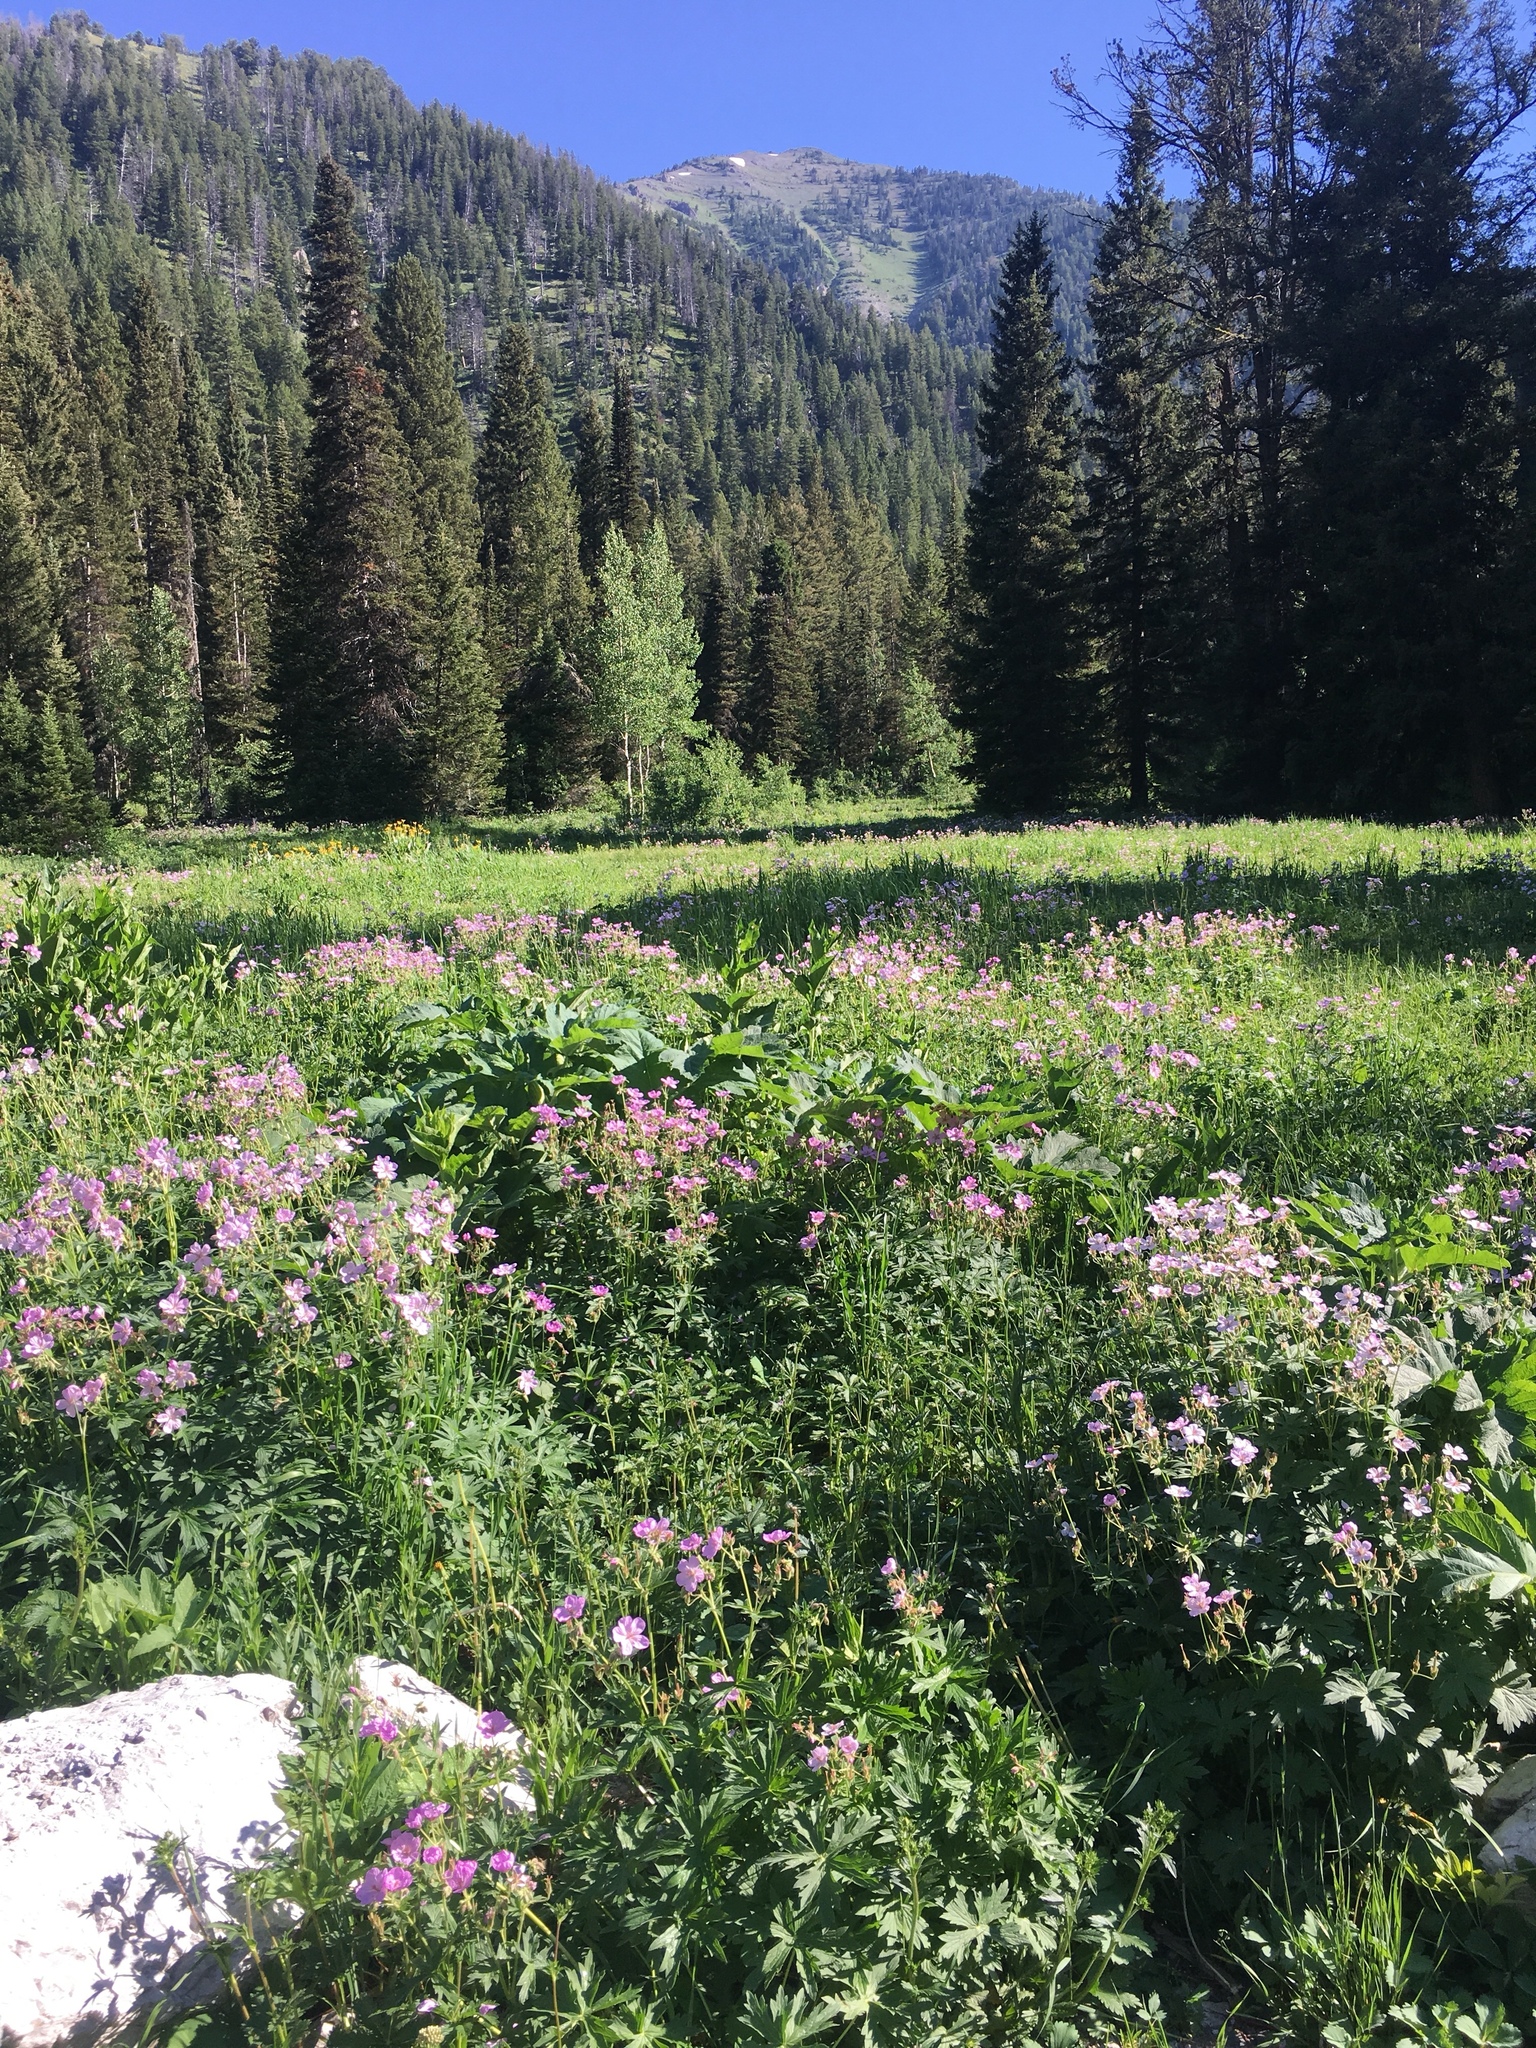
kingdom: Plantae
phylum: Tracheophyta
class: Magnoliopsida
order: Geraniales
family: Geraniaceae
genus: Geranium
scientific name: Geranium viscosissimum
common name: Purple geranium
